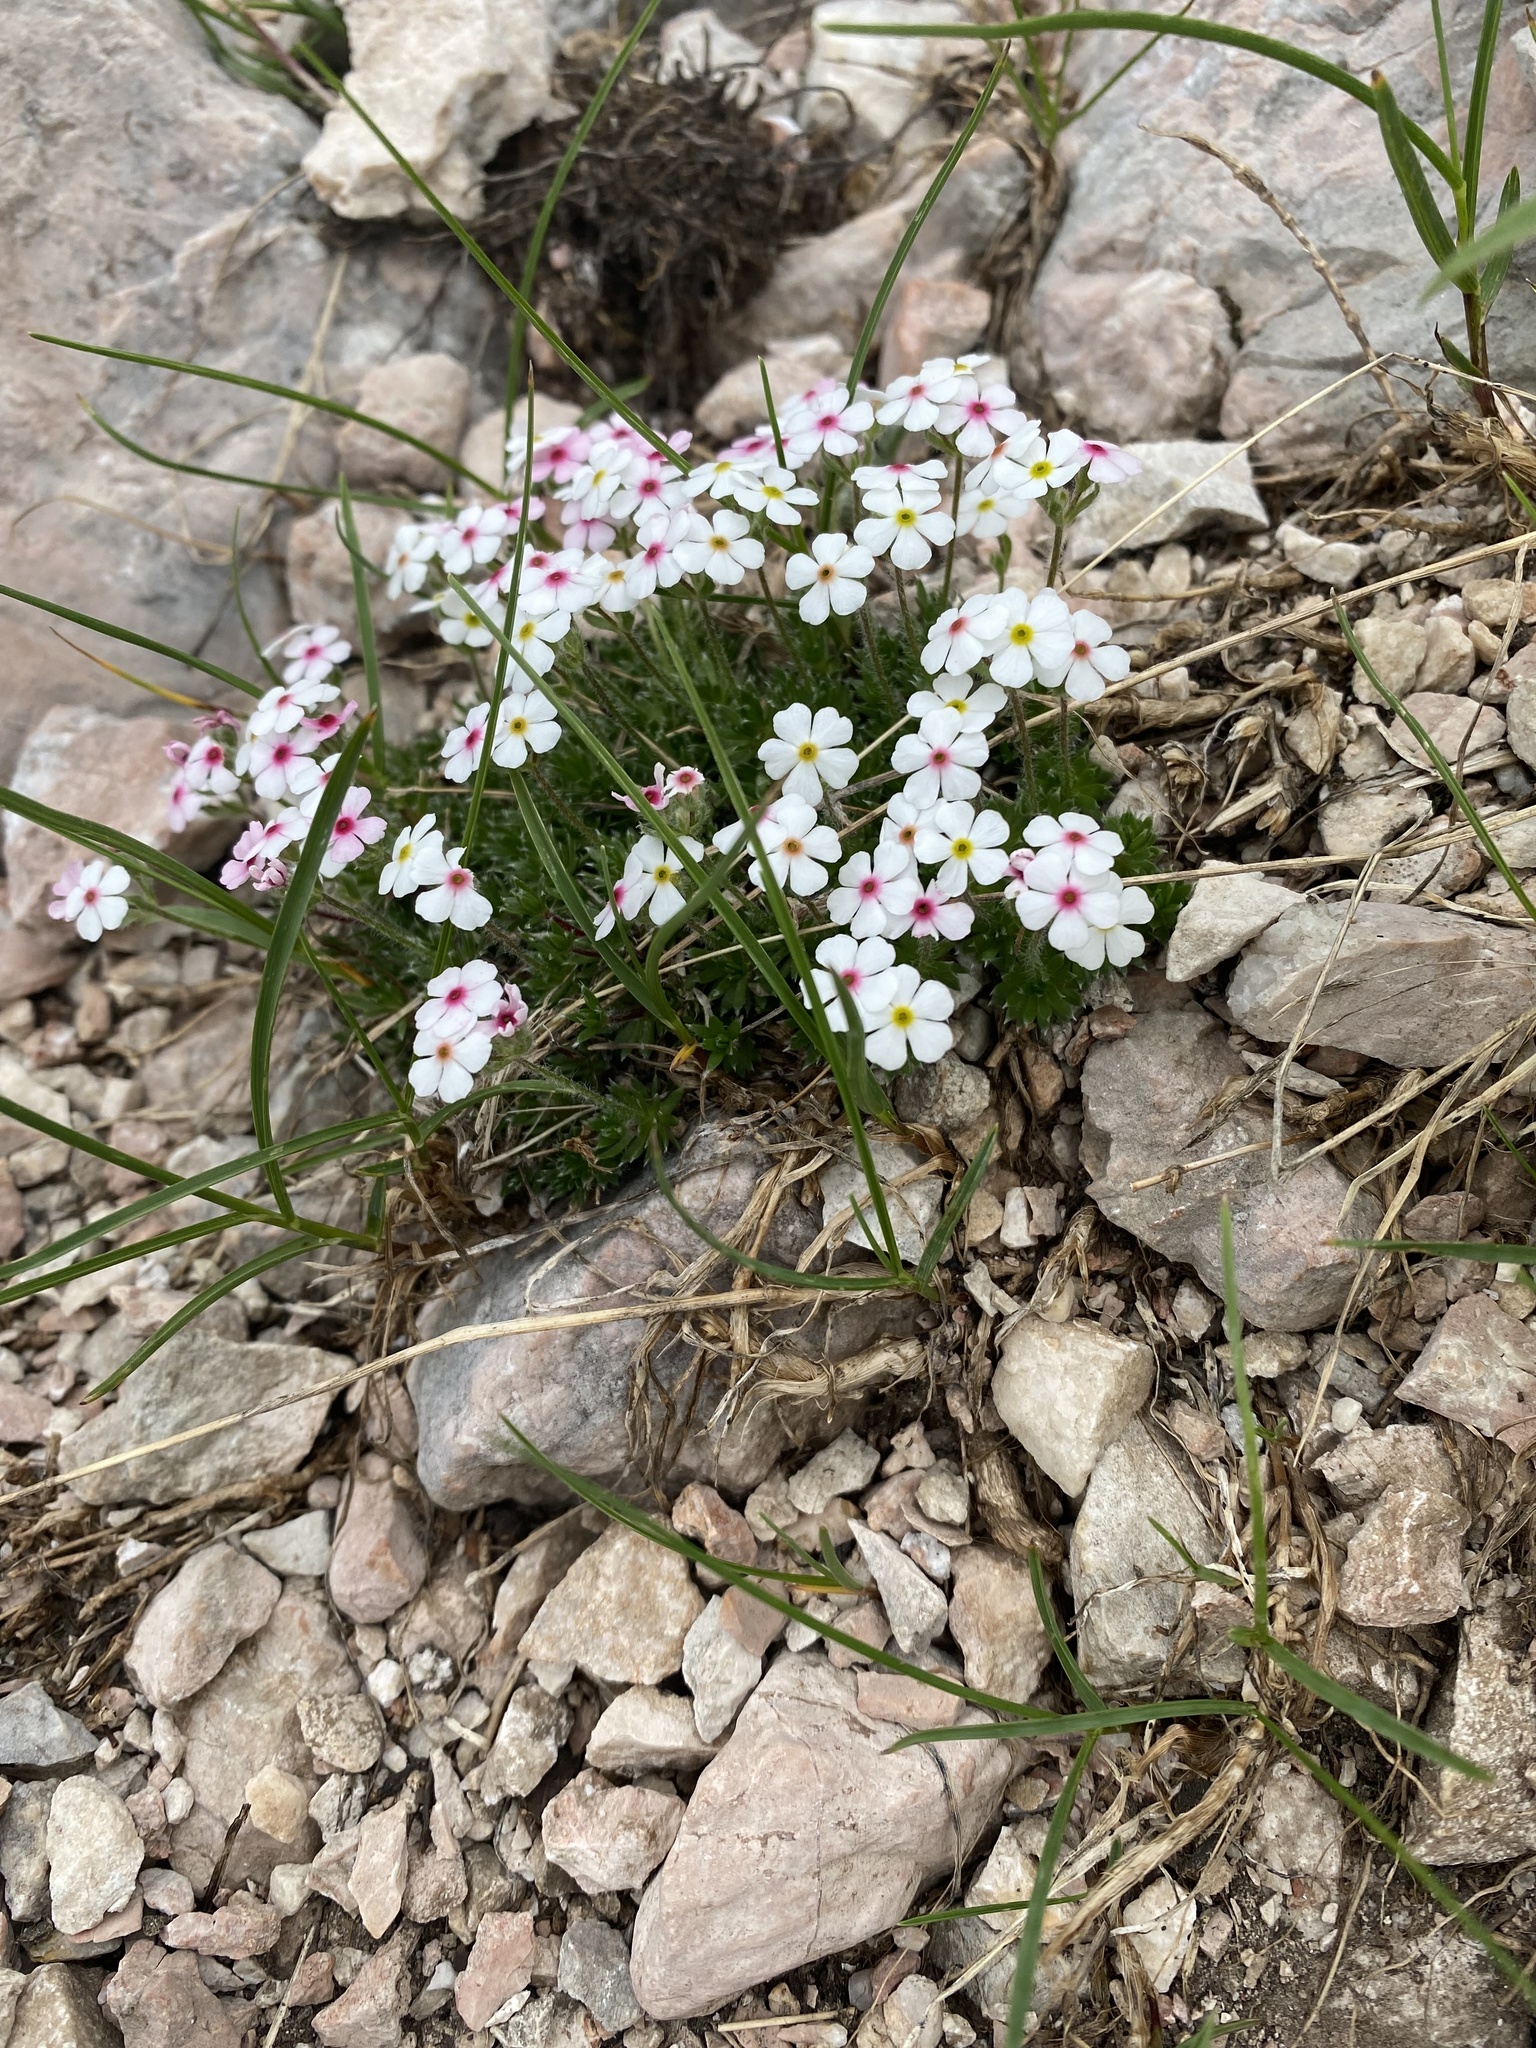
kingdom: Plantae
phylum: Tracheophyta
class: Magnoliopsida
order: Ericales
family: Primulaceae
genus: Androsace
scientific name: Androsace villosa
